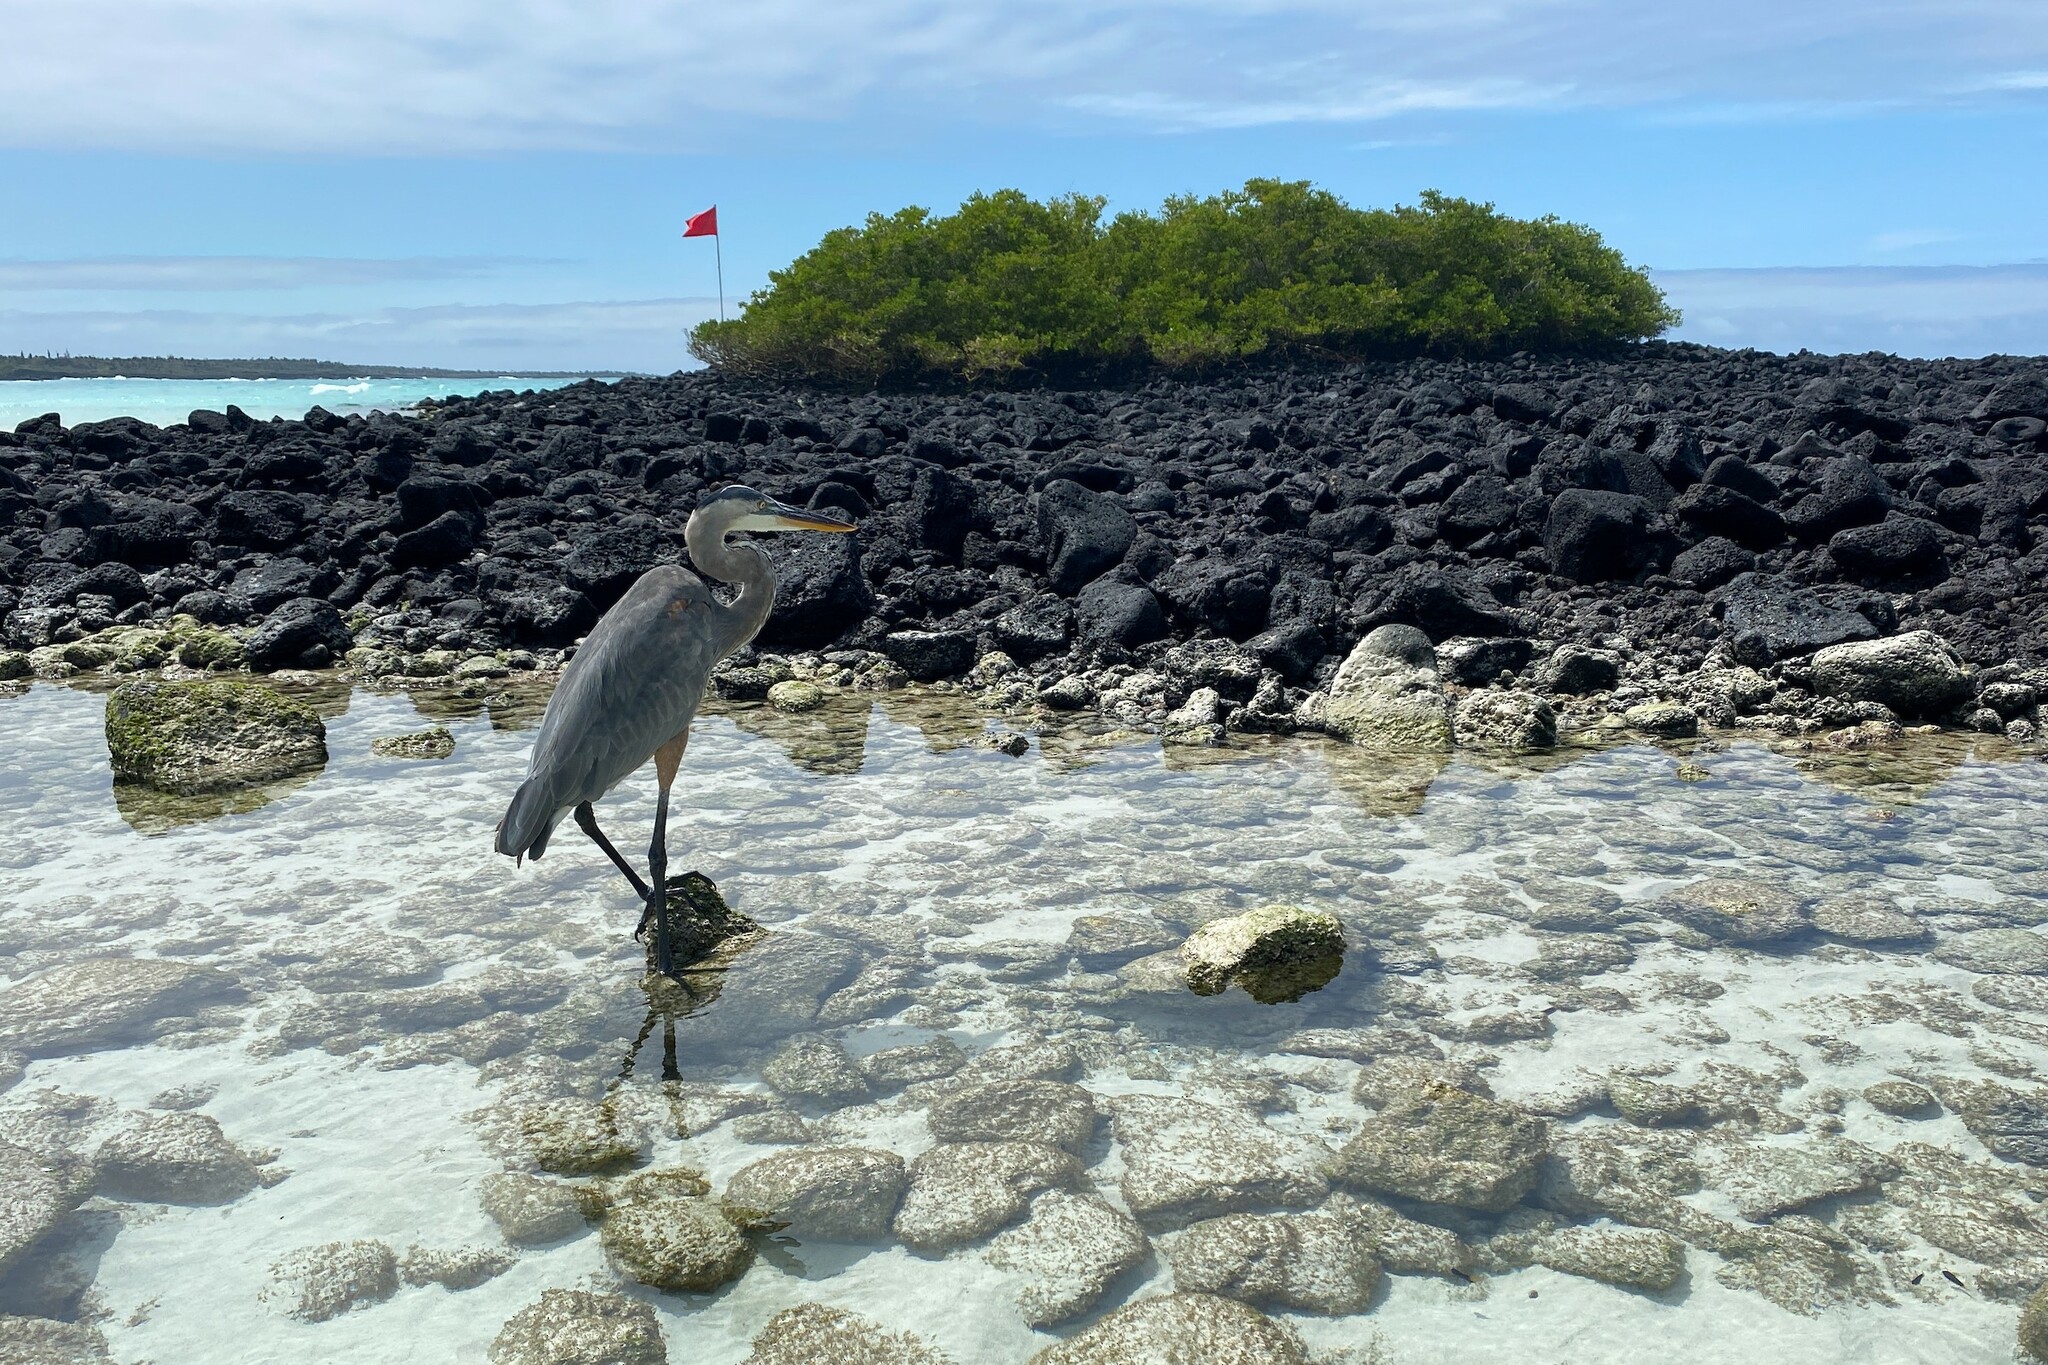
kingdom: Animalia
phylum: Chordata
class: Aves
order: Pelecaniformes
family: Ardeidae
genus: Ardea
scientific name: Ardea herodias
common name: Great blue heron
